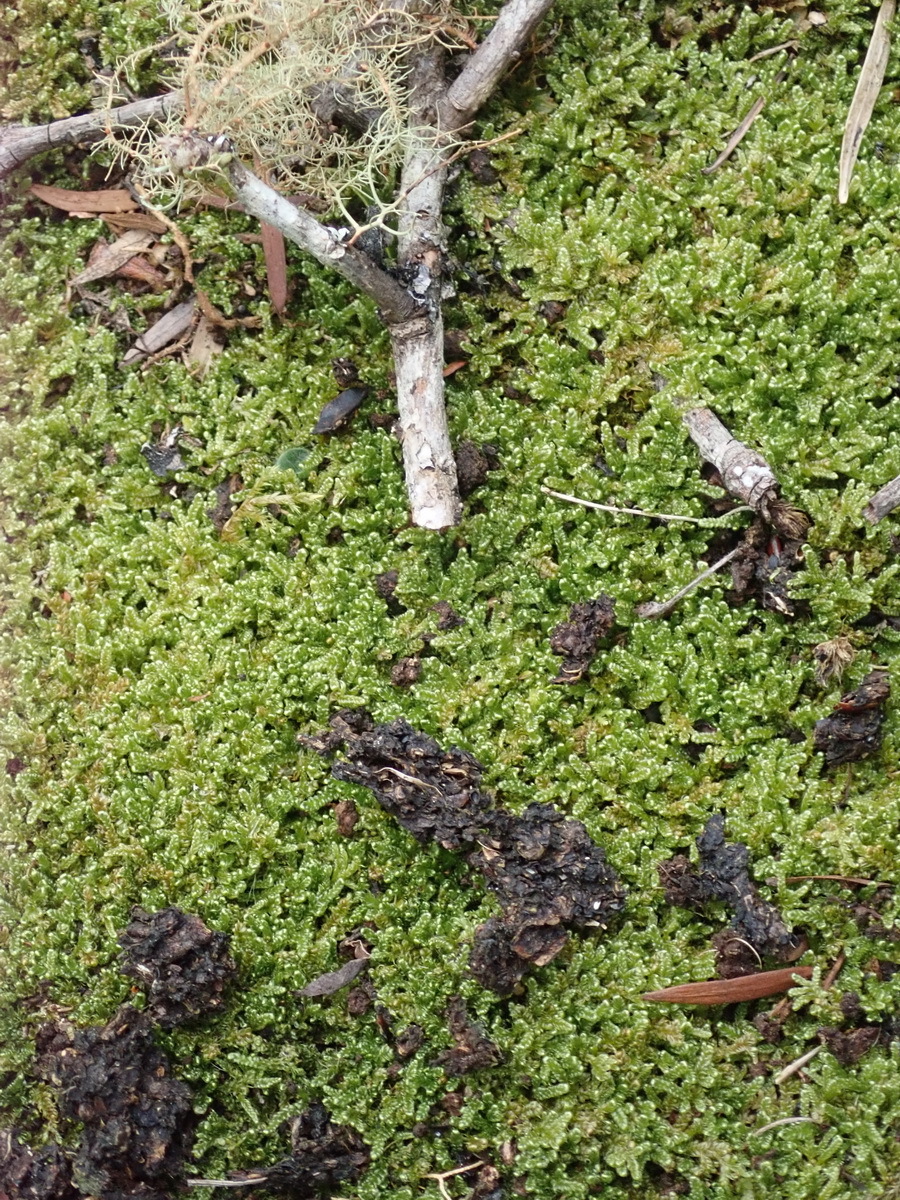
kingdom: Plantae
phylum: Bryophyta
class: Bryopsida
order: Hypnales
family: Hypnaceae
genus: Hypnum
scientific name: Hypnum cupressiforme
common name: Cypress-leaved plait-moss
